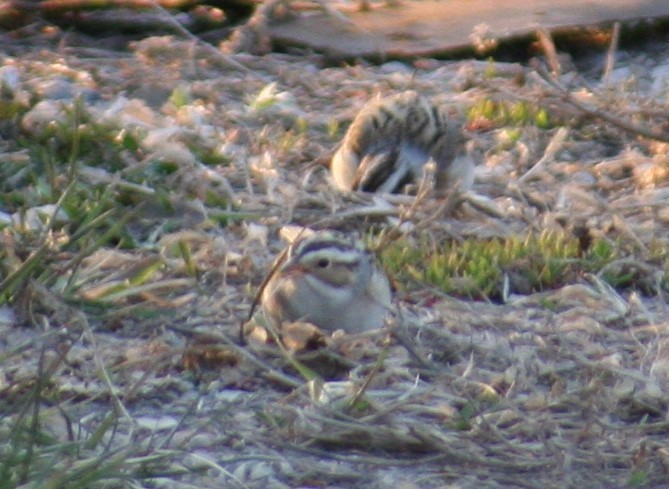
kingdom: Animalia
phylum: Chordata
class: Aves
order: Passeriformes
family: Passerellidae
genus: Spizella
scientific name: Spizella pallida
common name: Clay-colored sparrow
